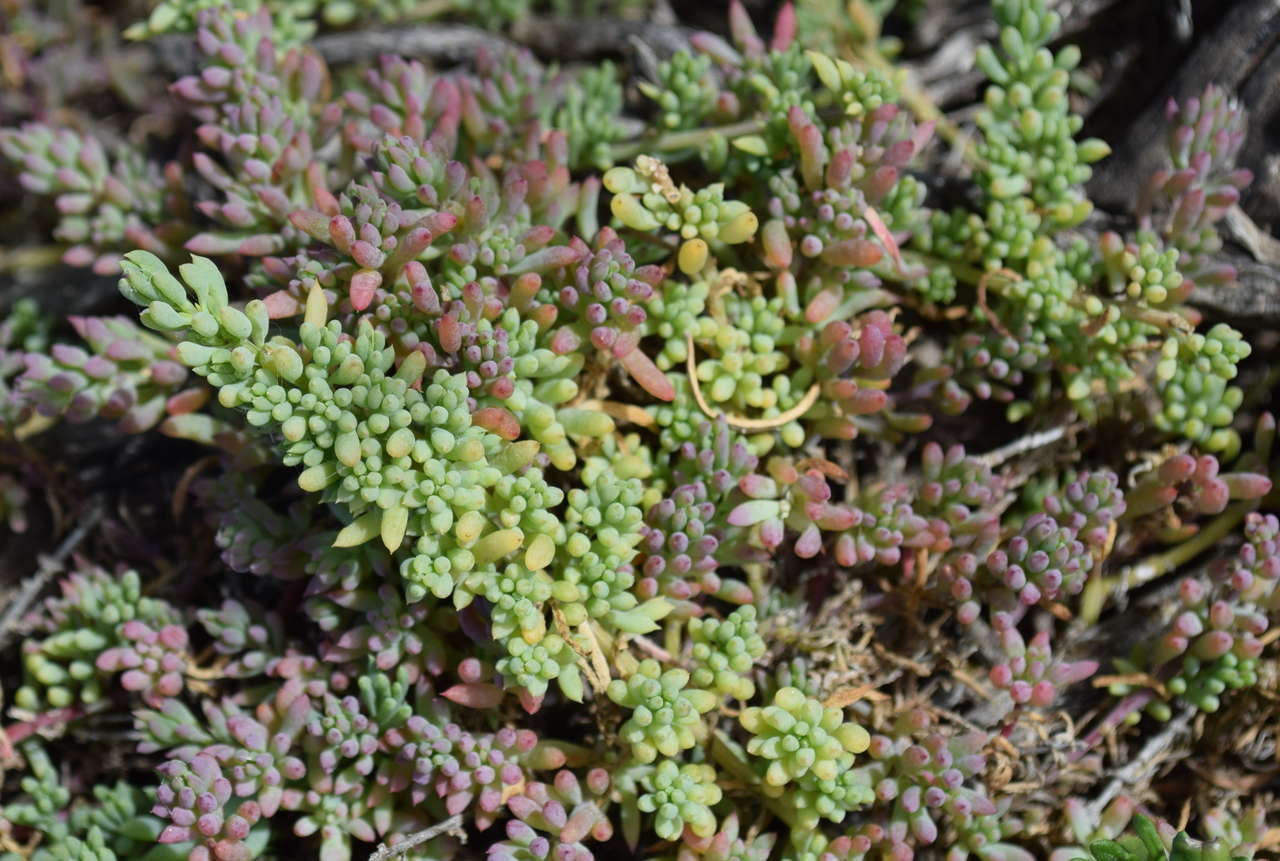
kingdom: Plantae
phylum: Tracheophyta
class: Magnoliopsida
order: Caryophyllales
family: Amaranthaceae
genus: Threlkeldia
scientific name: Threlkeldia diffusa
